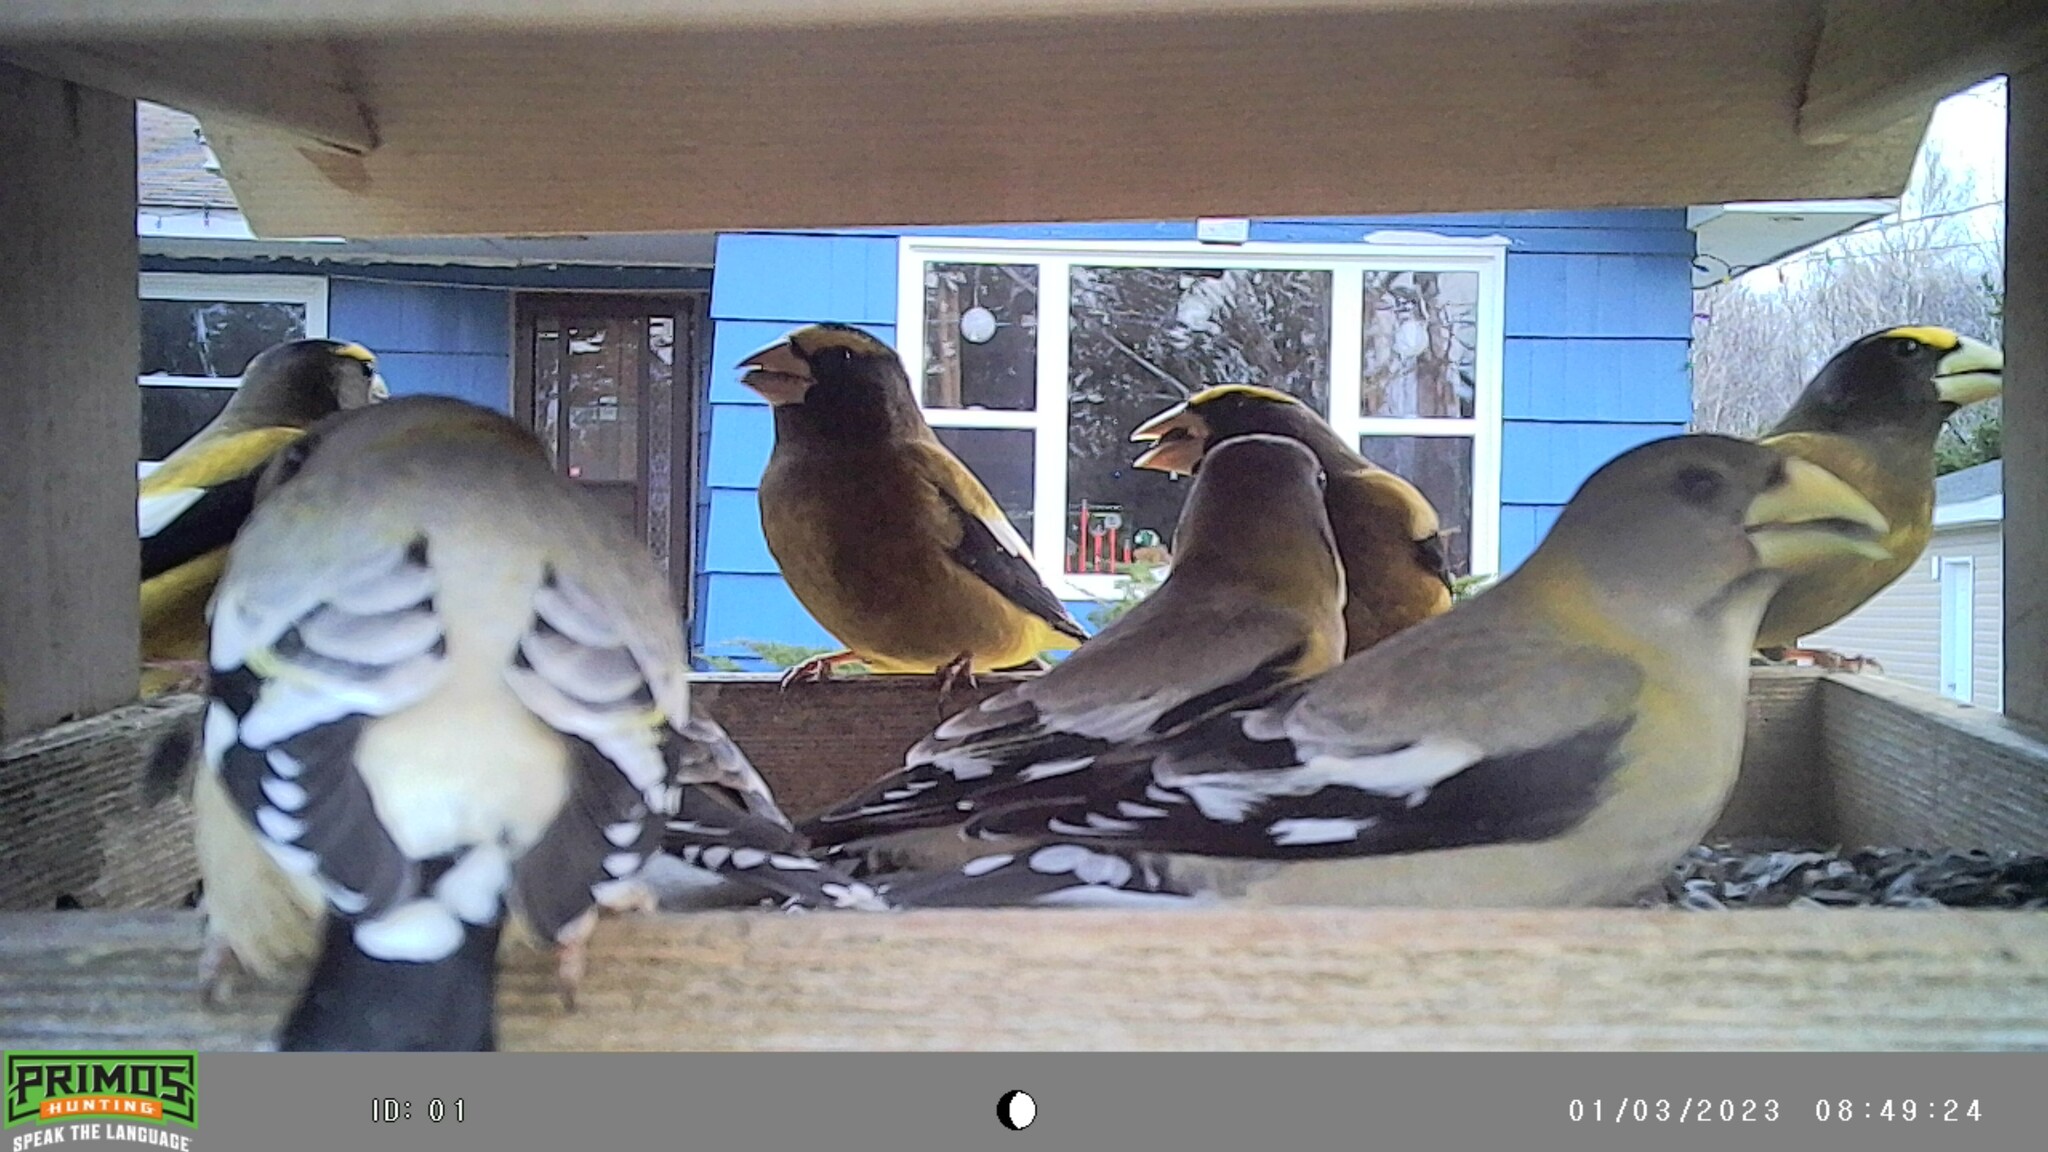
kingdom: Animalia
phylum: Chordata
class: Aves
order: Passeriformes
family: Fringillidae
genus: Hesperiphona
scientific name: Hesperiphona vespertina
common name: Evening grosbeak
